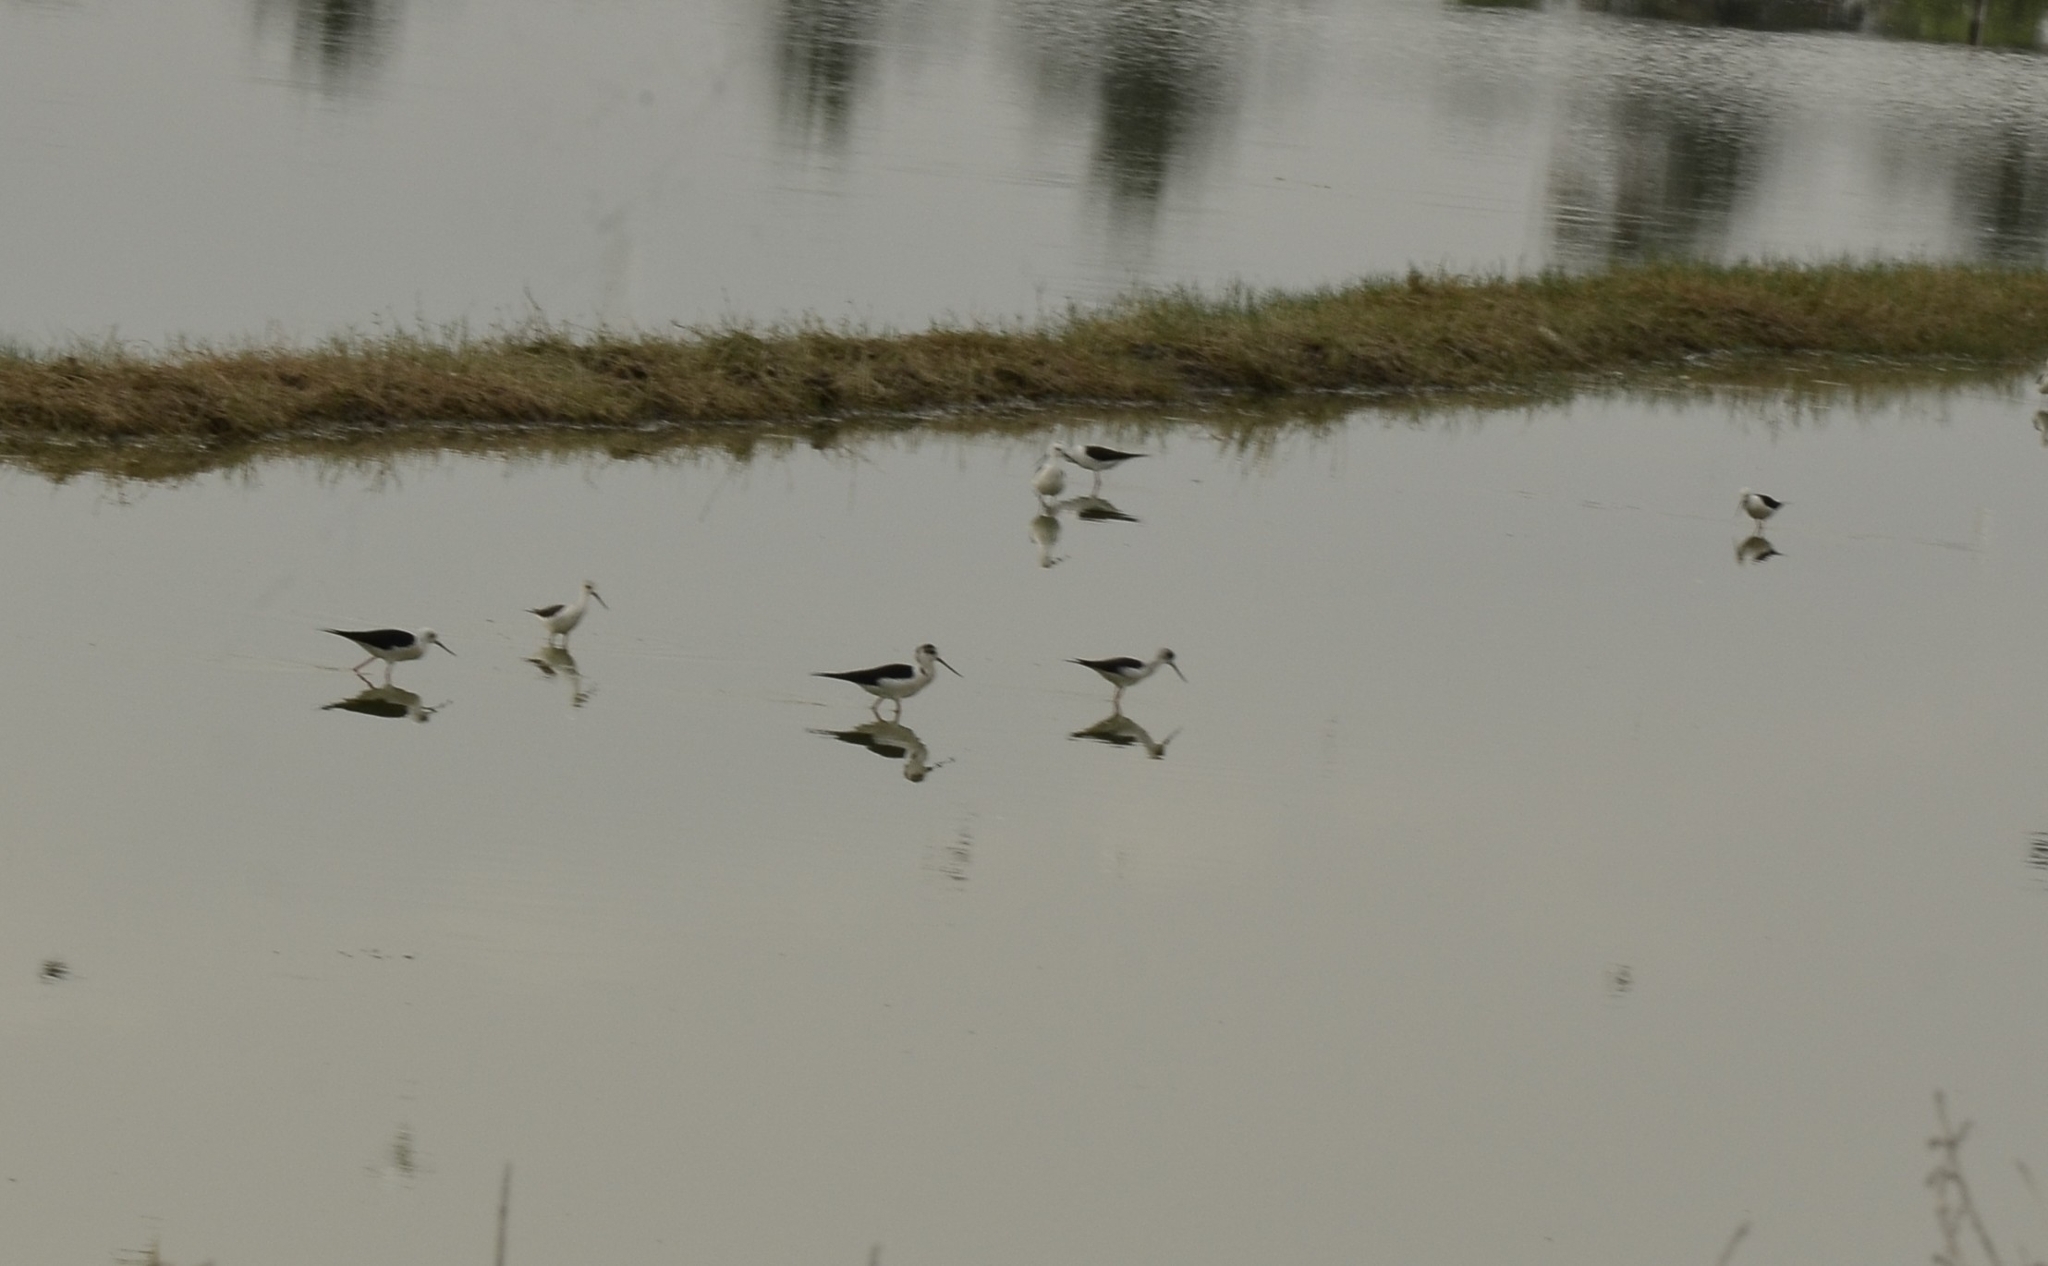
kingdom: Animalia
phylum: Chordata
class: Aves
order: Charadriiformes
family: Recurvirostridae
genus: Himantopus
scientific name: Himantopus himantopus
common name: Black-winged stilt
